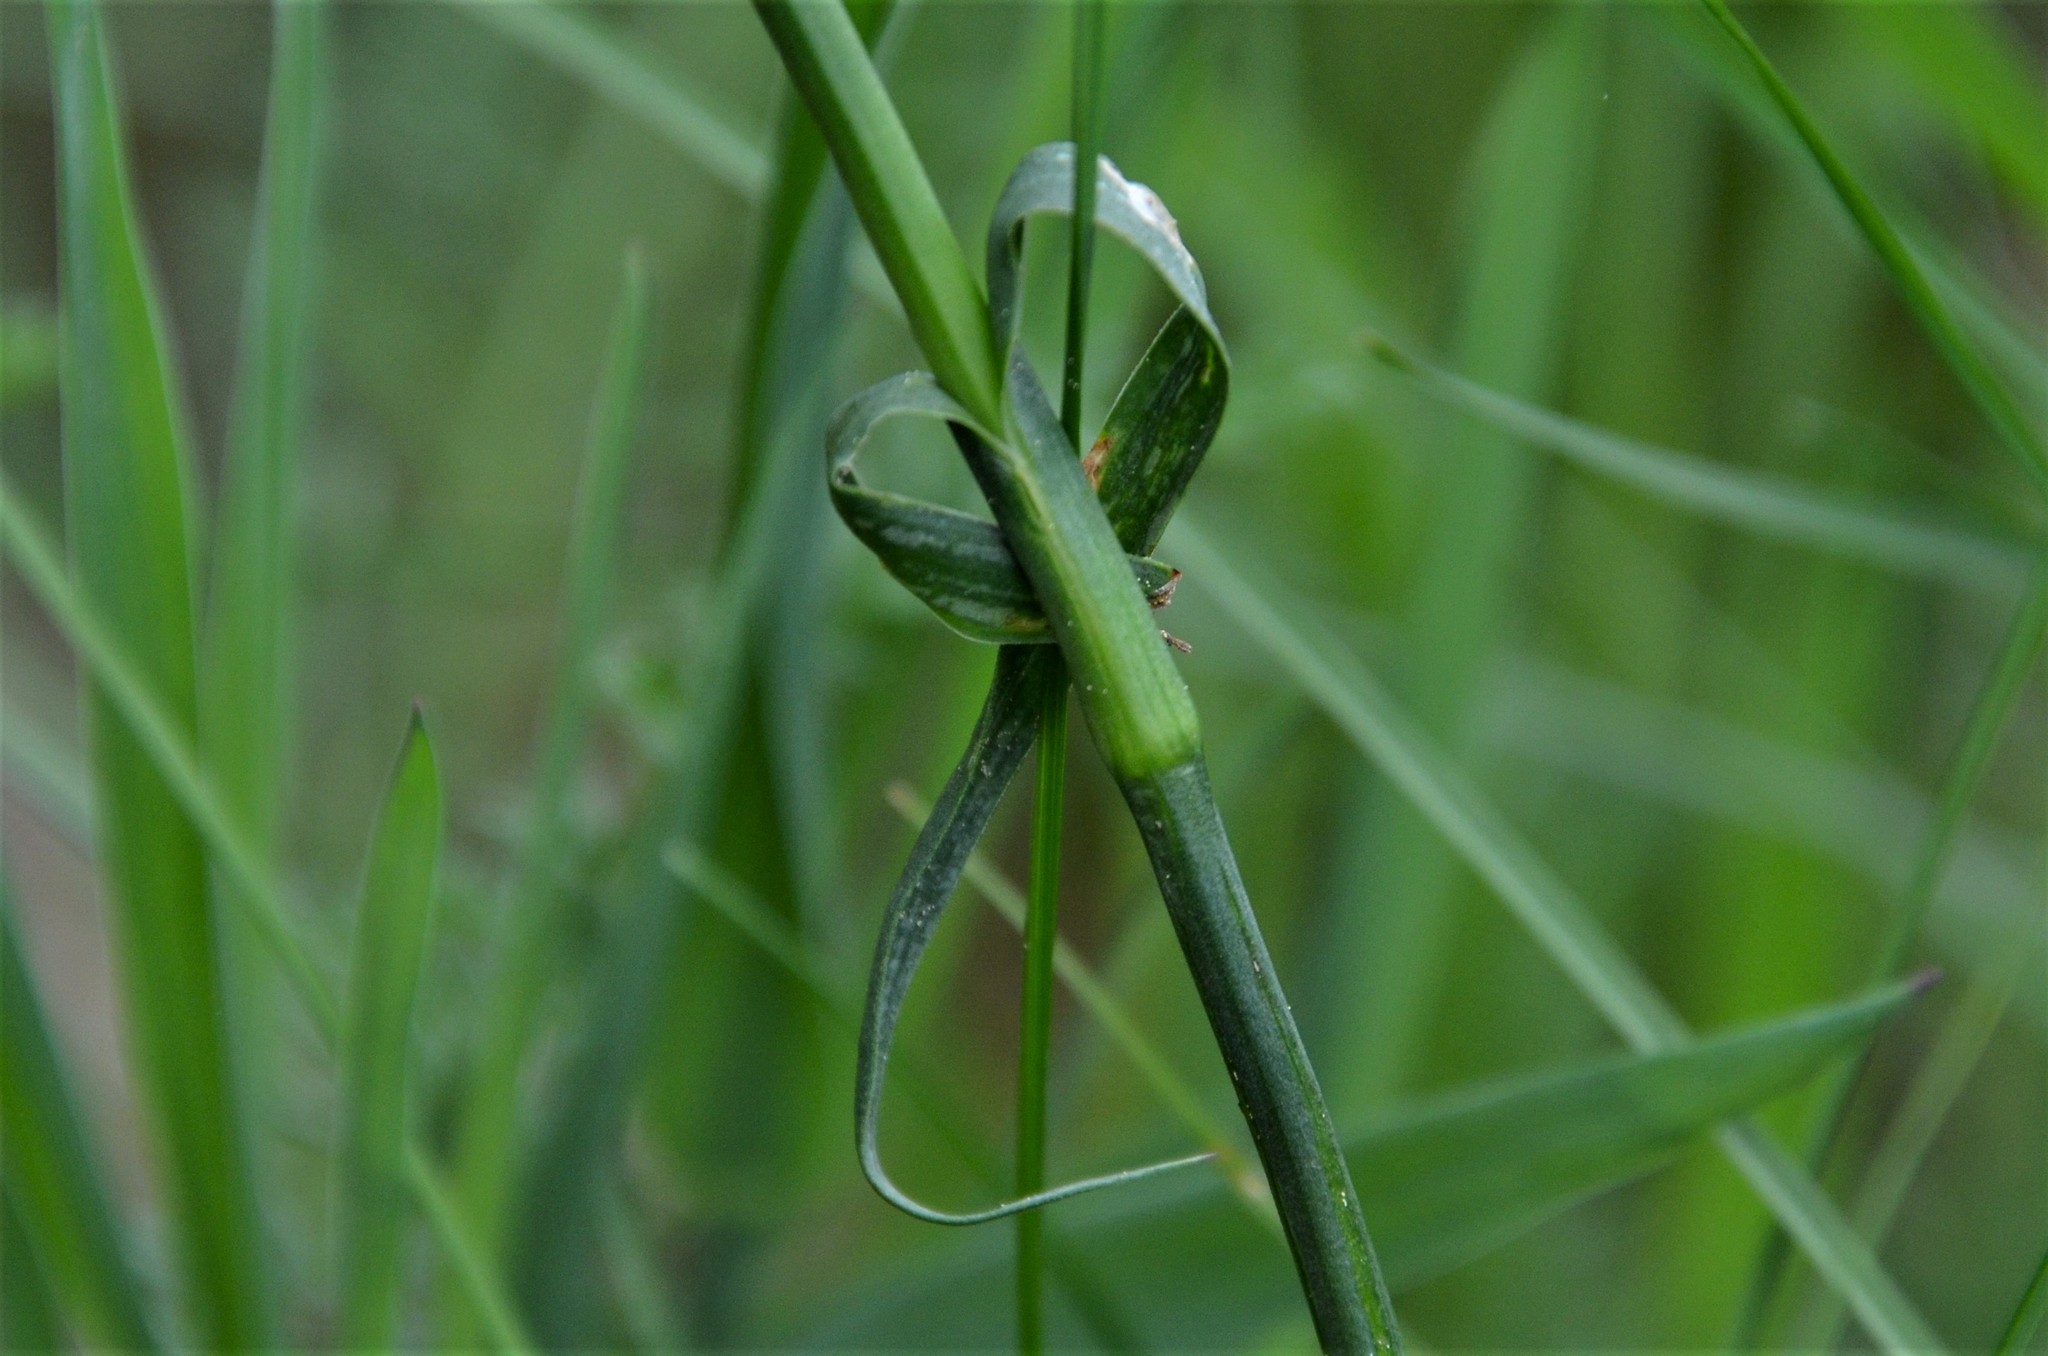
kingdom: Plantae
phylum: Tracheophyta
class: Magnoliopsida
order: Caryophyllales
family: Caryophyllaceae
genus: Dianthus
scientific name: Dianthus carthusianorum
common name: Carthusian pink
